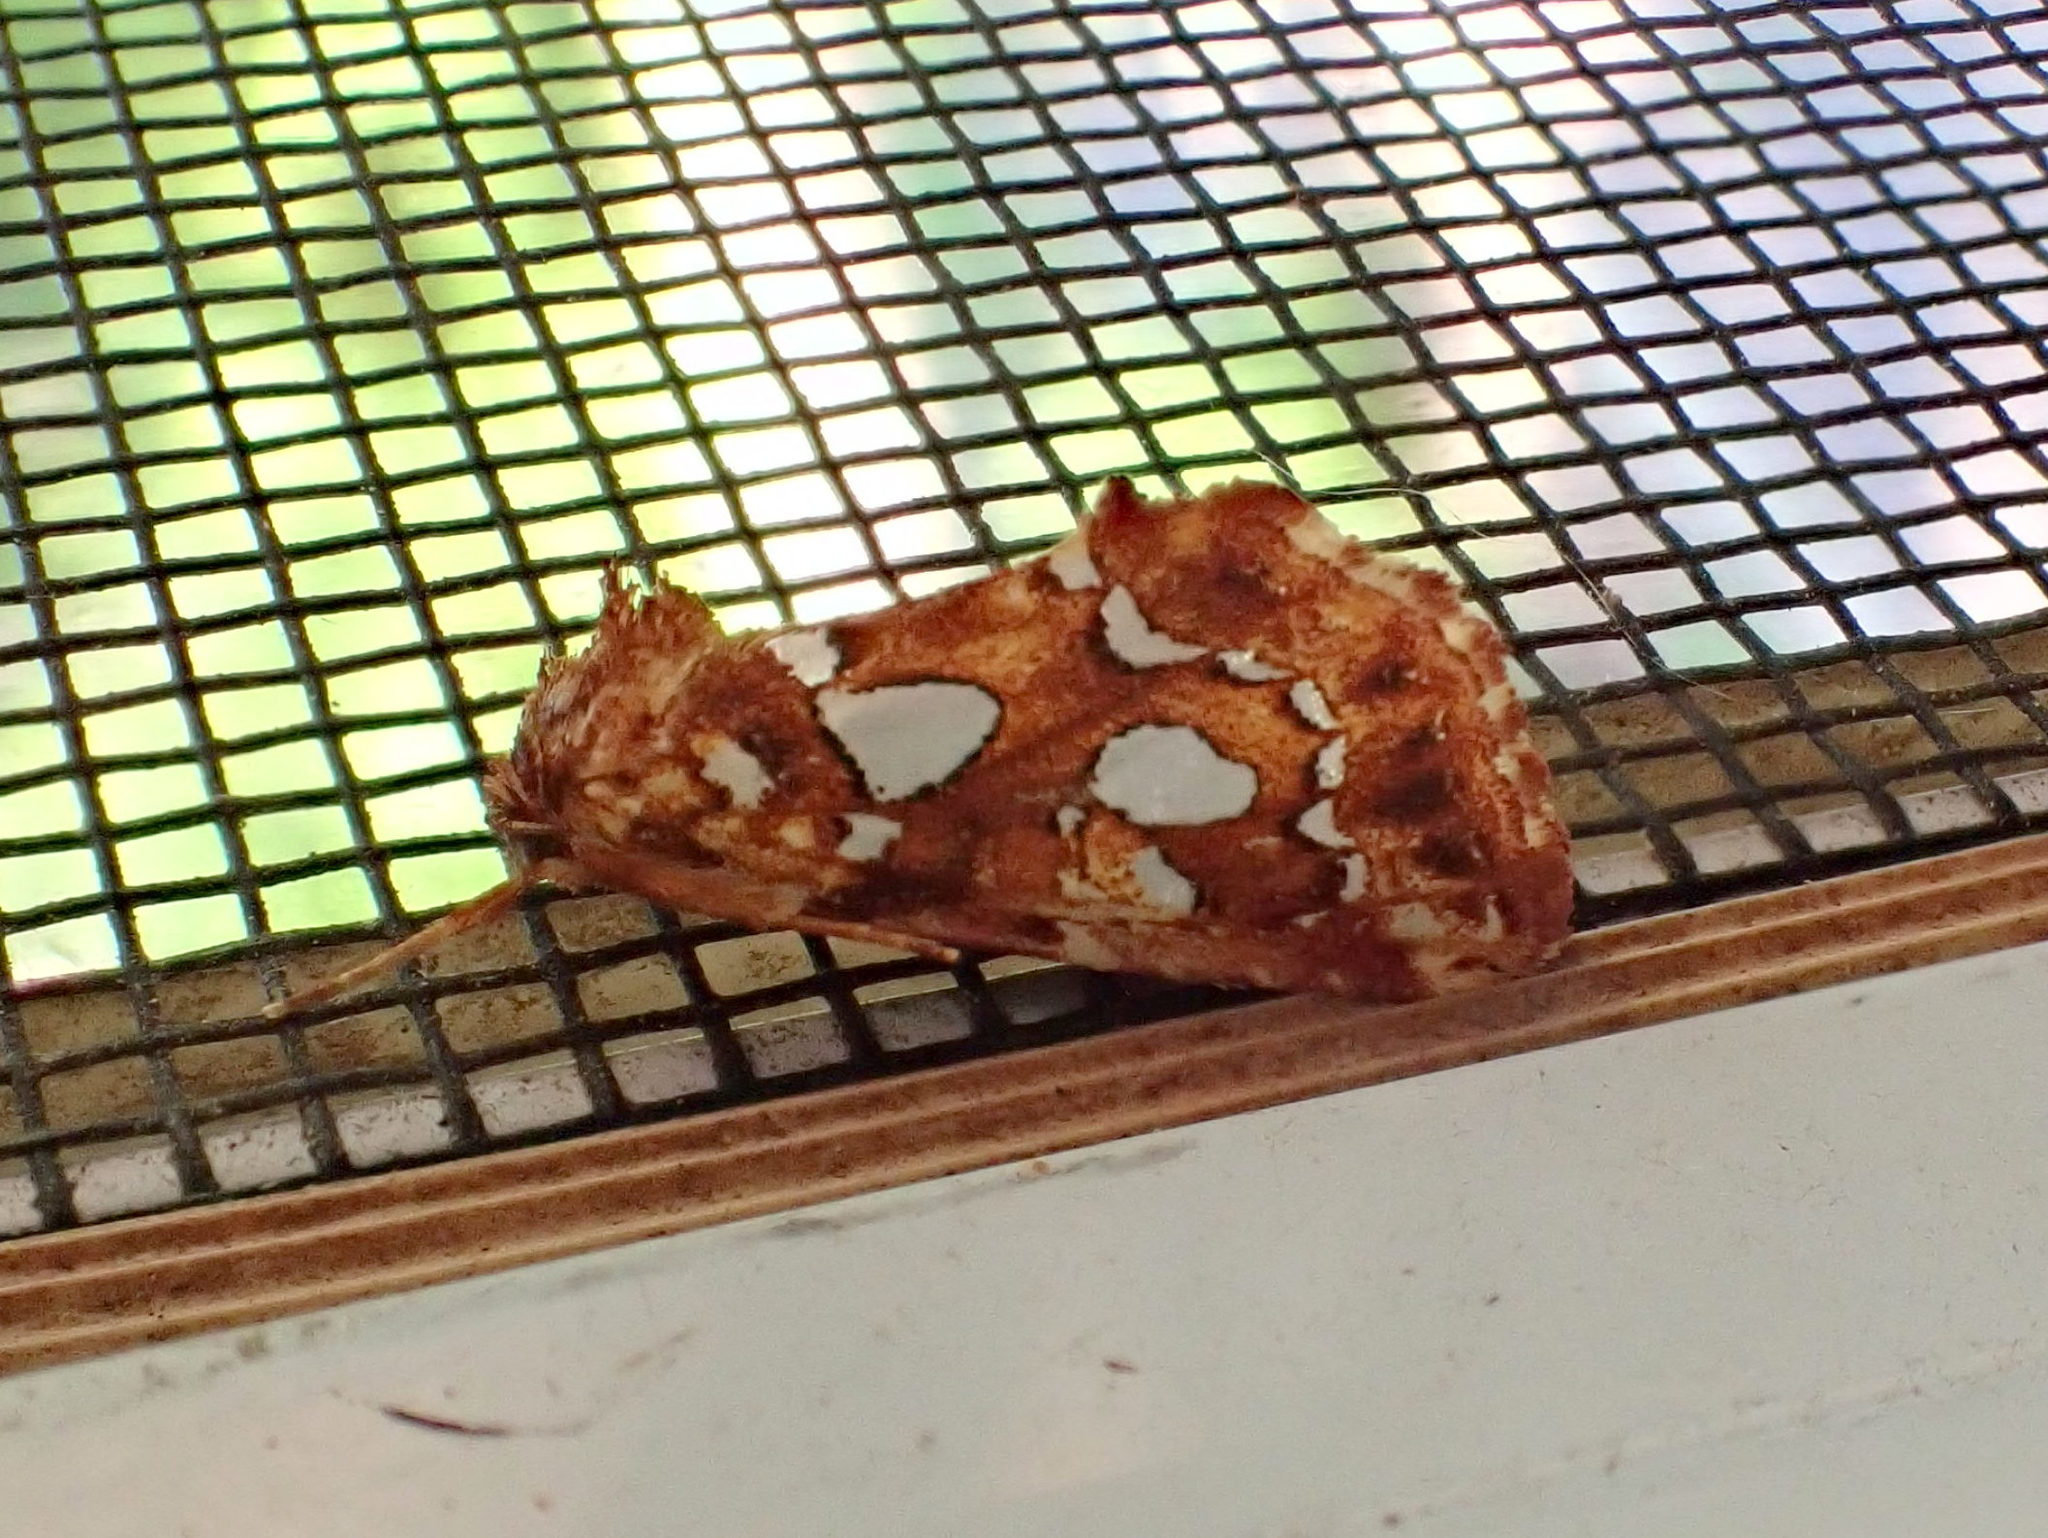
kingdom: Animalia
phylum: Arthropoda
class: Insecta
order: Lepidoptera
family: Noctuidae
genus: Callopistria
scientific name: Callopistria cordata
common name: Silver-spotted fern moth
